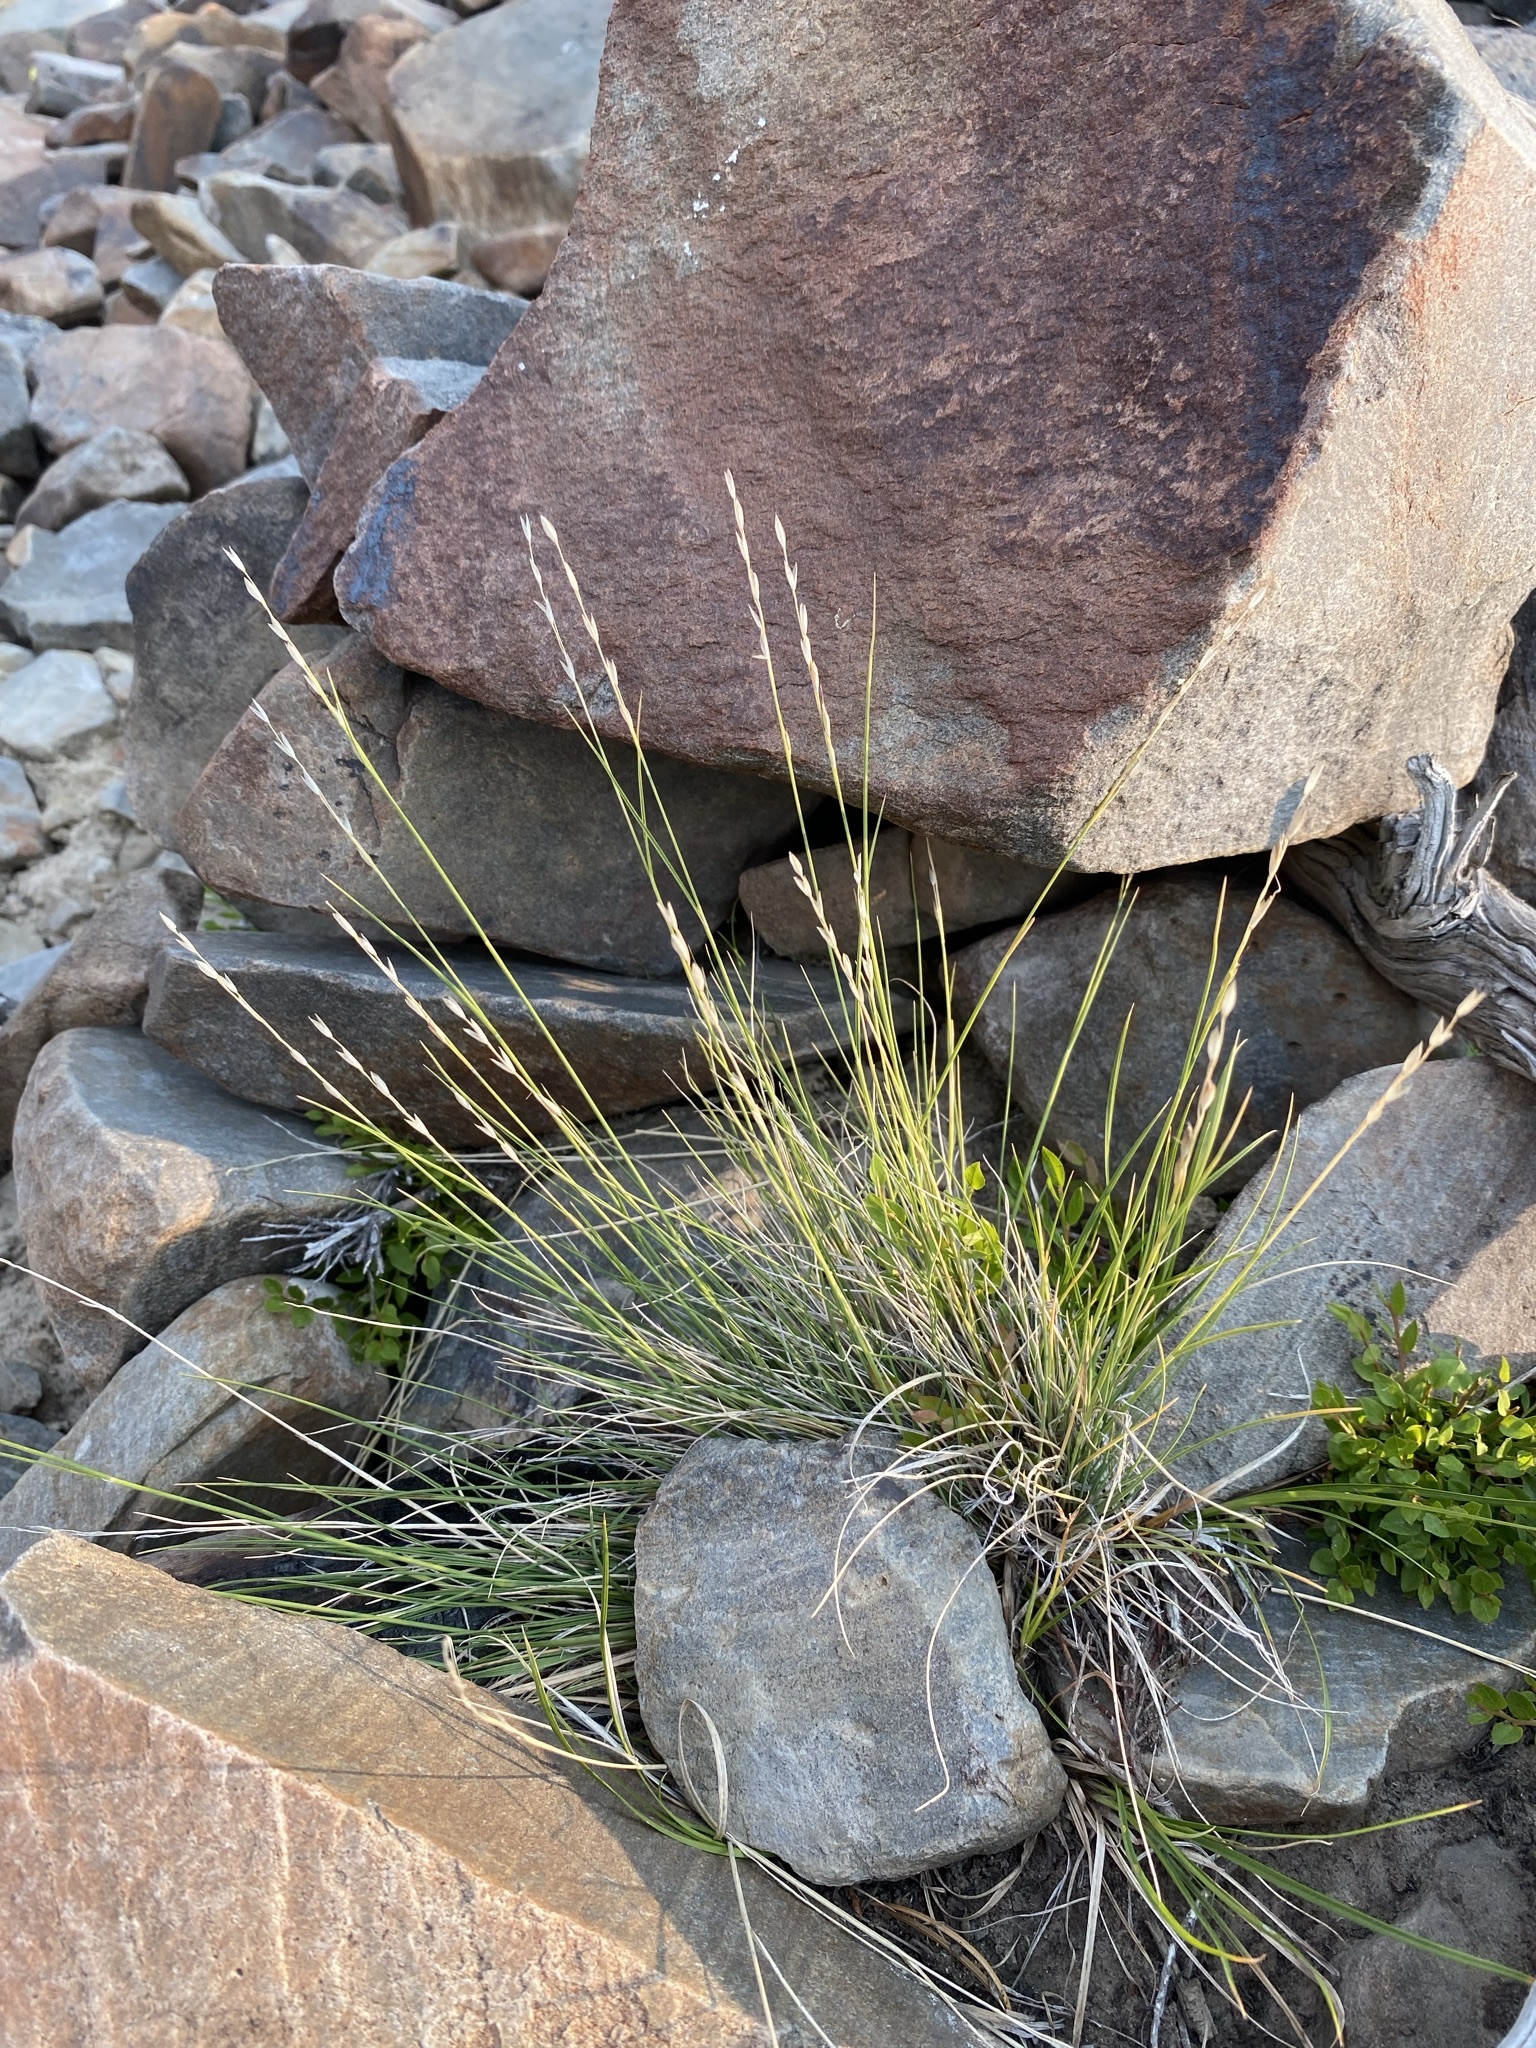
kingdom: Plantae
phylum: Tracheophyta
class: Liliopsida
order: Poales
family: Poaceae
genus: Piptatheropsis
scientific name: Piptatheropsis exigua
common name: Little mountain ricegrass
